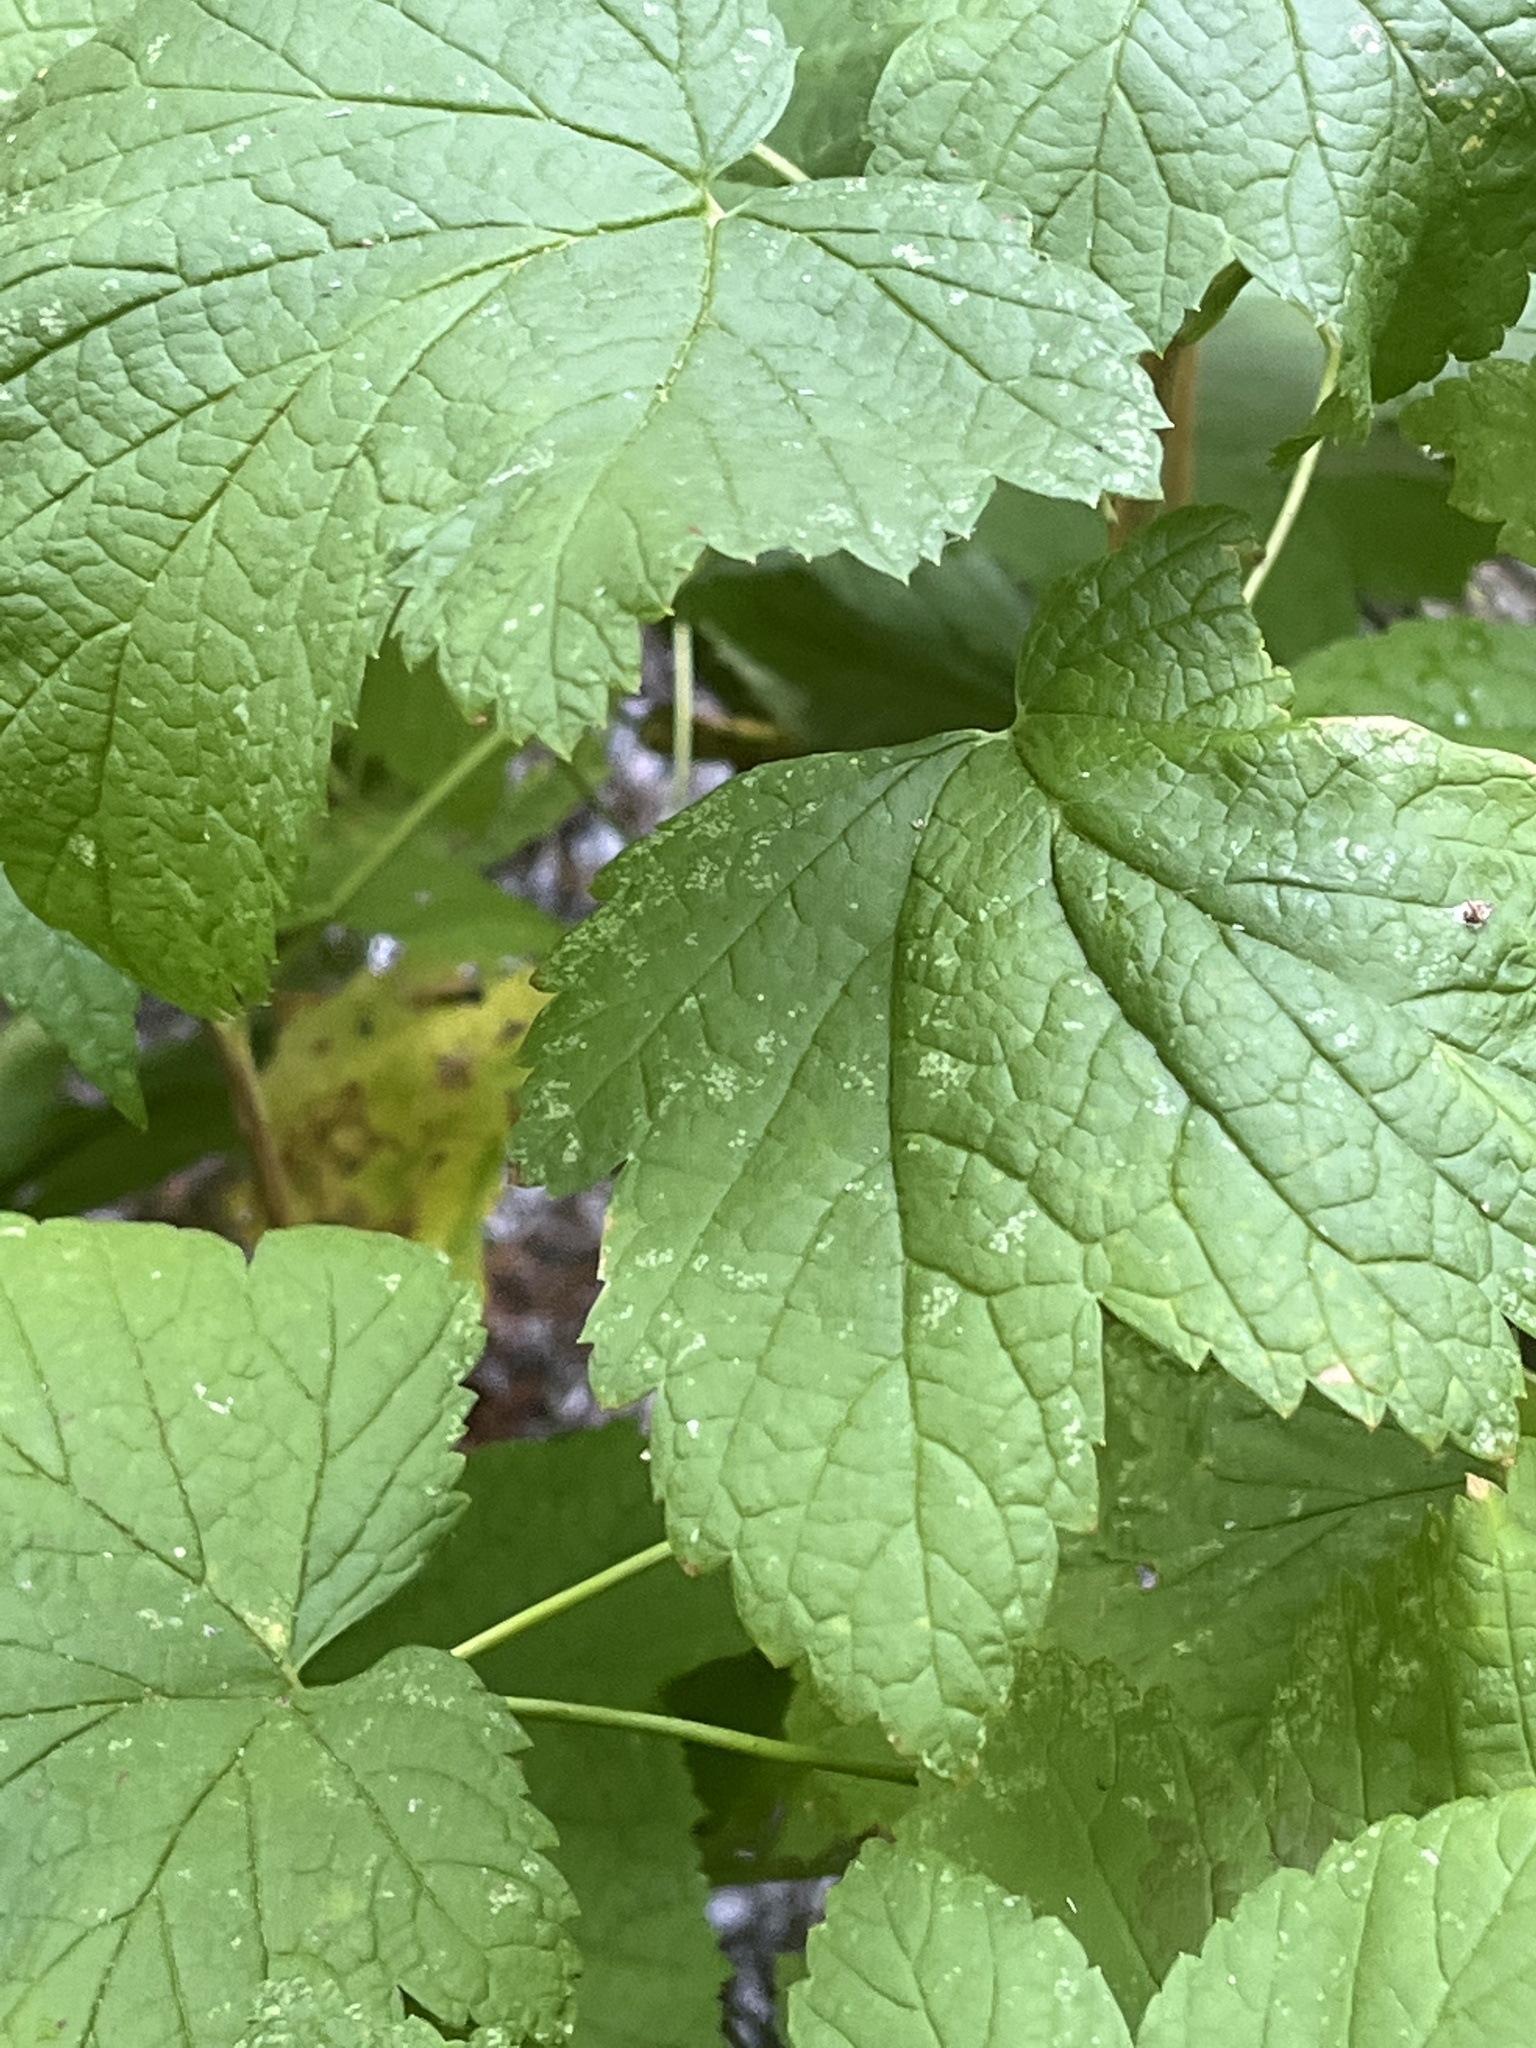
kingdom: Plantae
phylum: Tracheophyta
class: Magnoliopsida
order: Rosales
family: Rosaceae
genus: Rubus
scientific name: Rubus parviflorus
